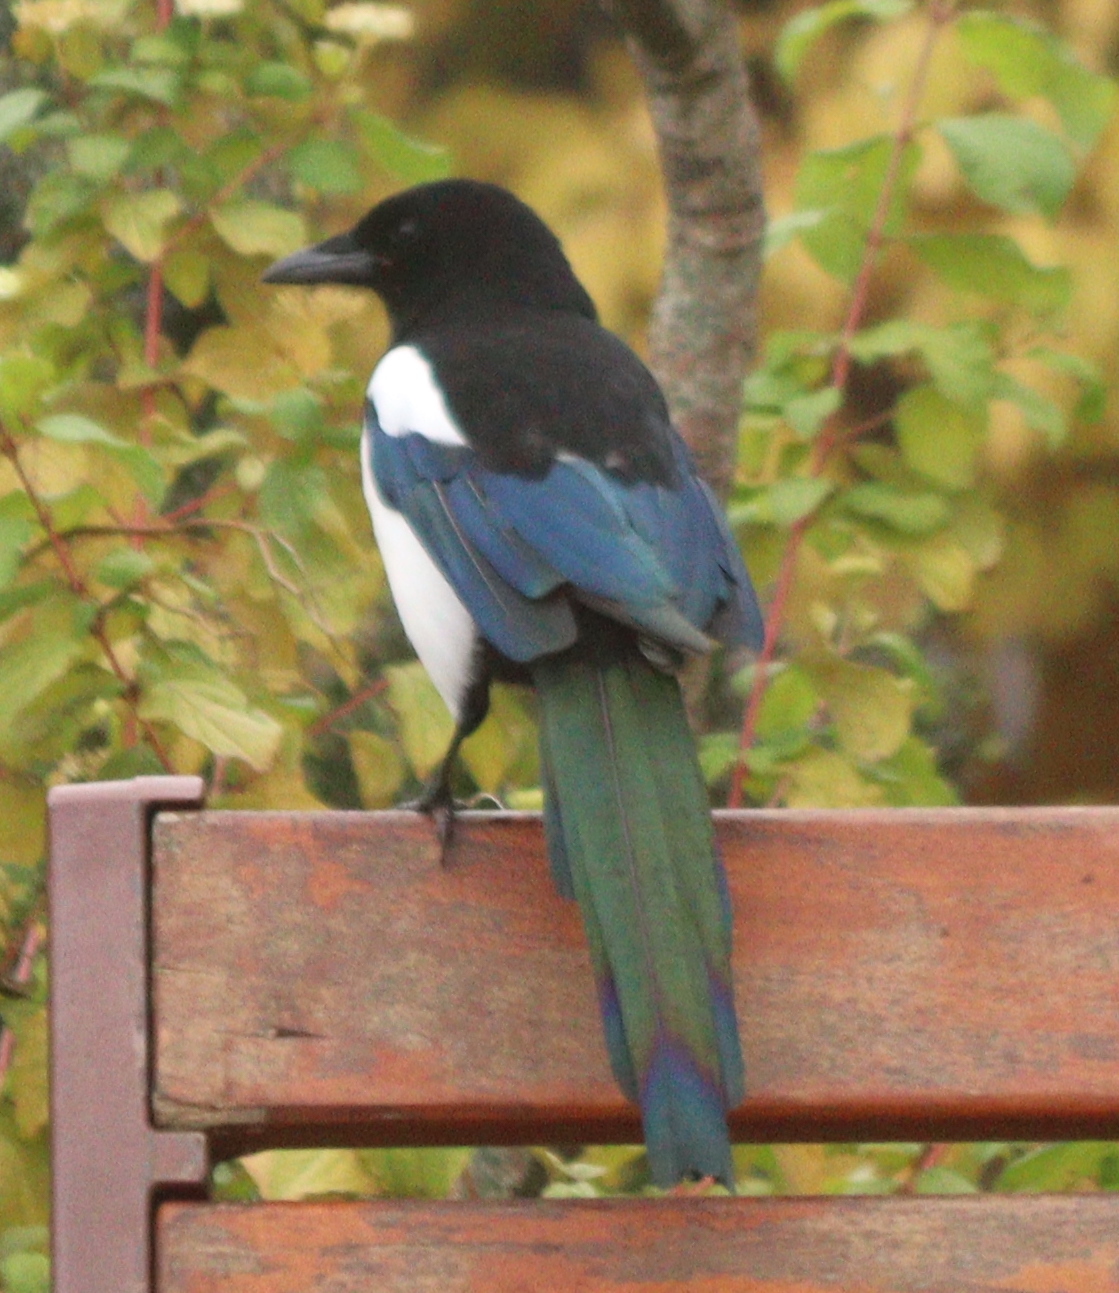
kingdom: Animalia
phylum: Chordata
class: Aves
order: Passeriformes
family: Corvidae
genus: Pica
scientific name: Pica pica
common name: Eurasian magpie
